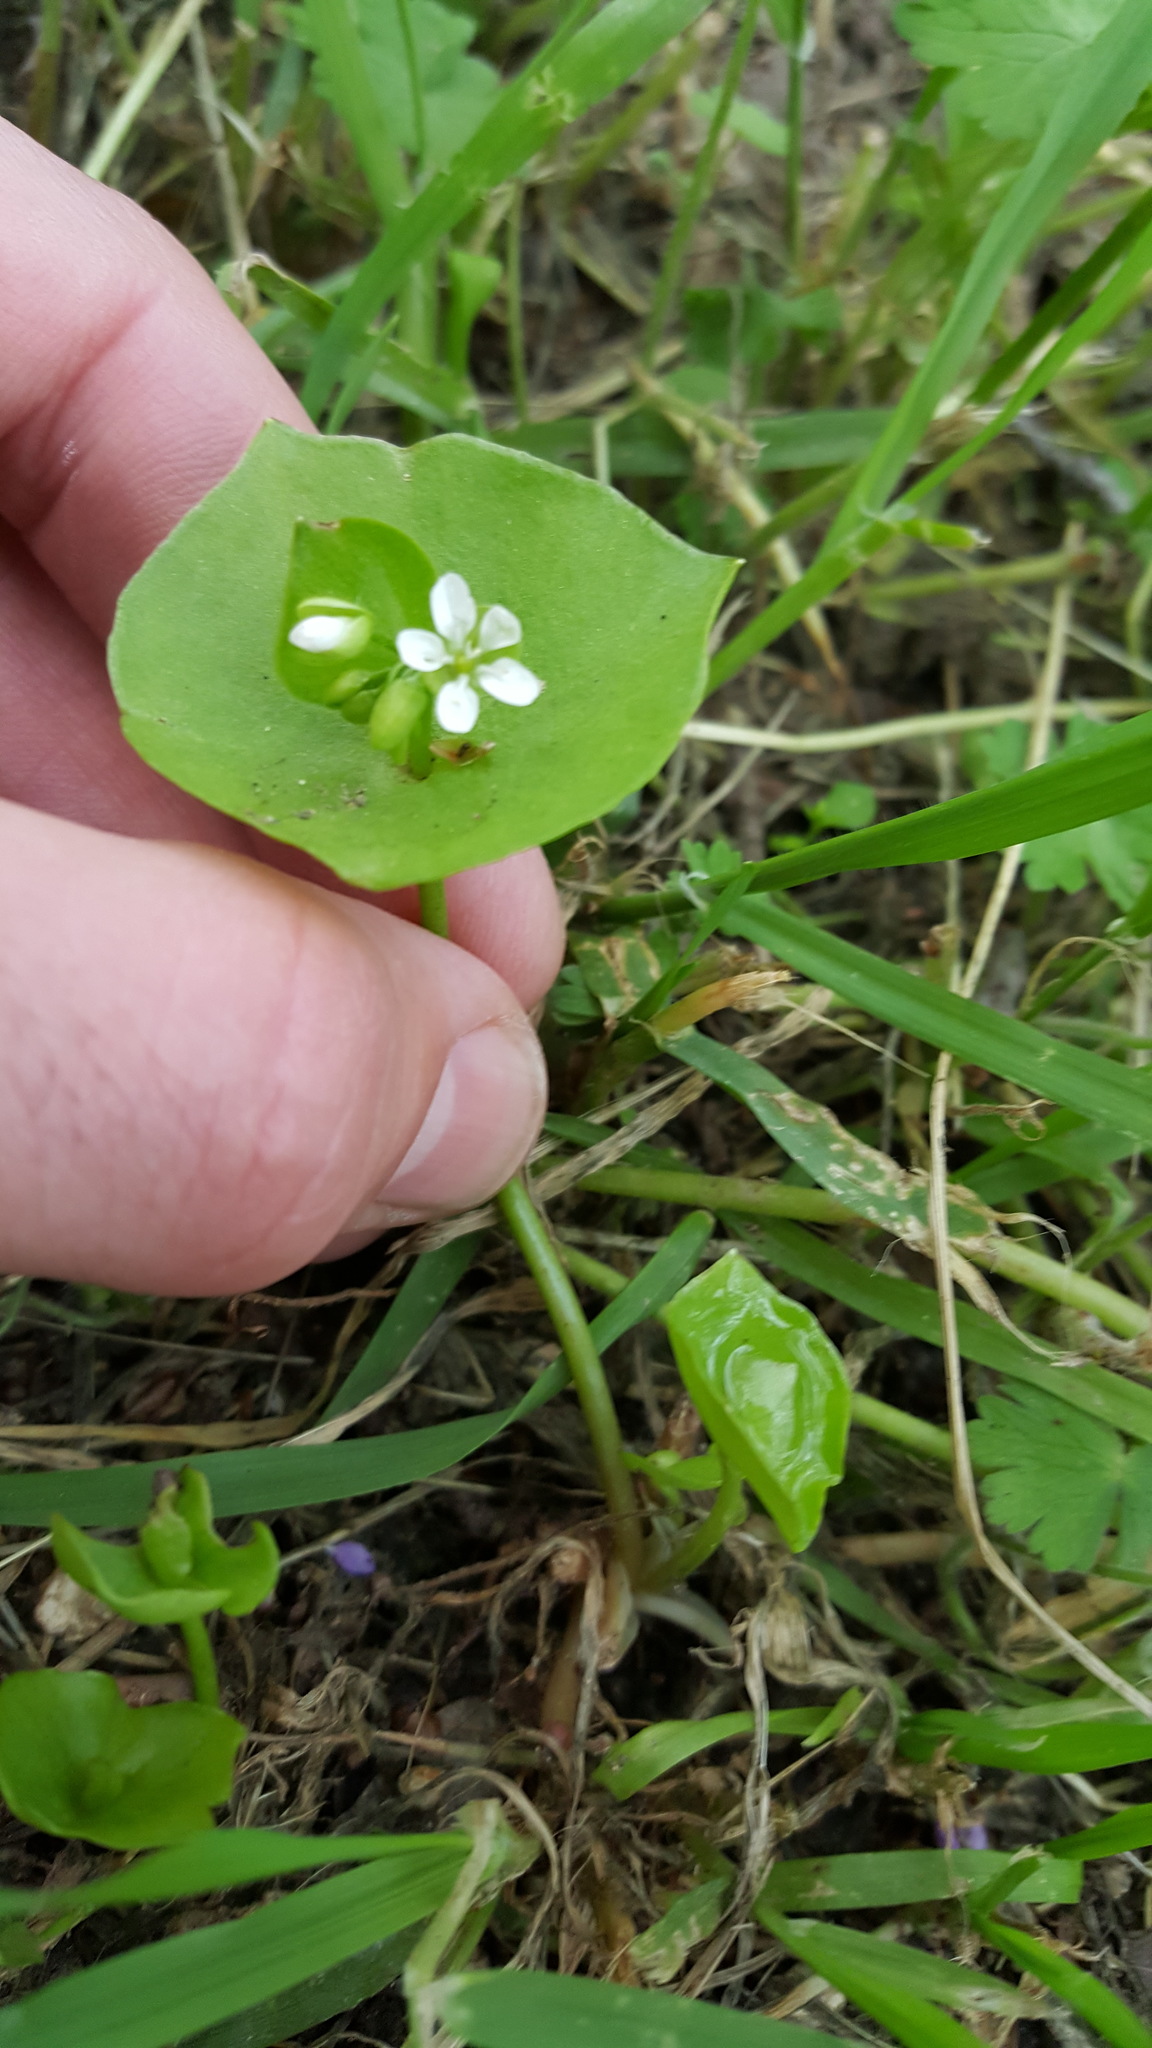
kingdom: Plantae
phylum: Tracheophyta
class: Magnoliopsida
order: Caryophyllales
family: Montiaceae
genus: Claytonia
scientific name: Claytonia perfoliata
